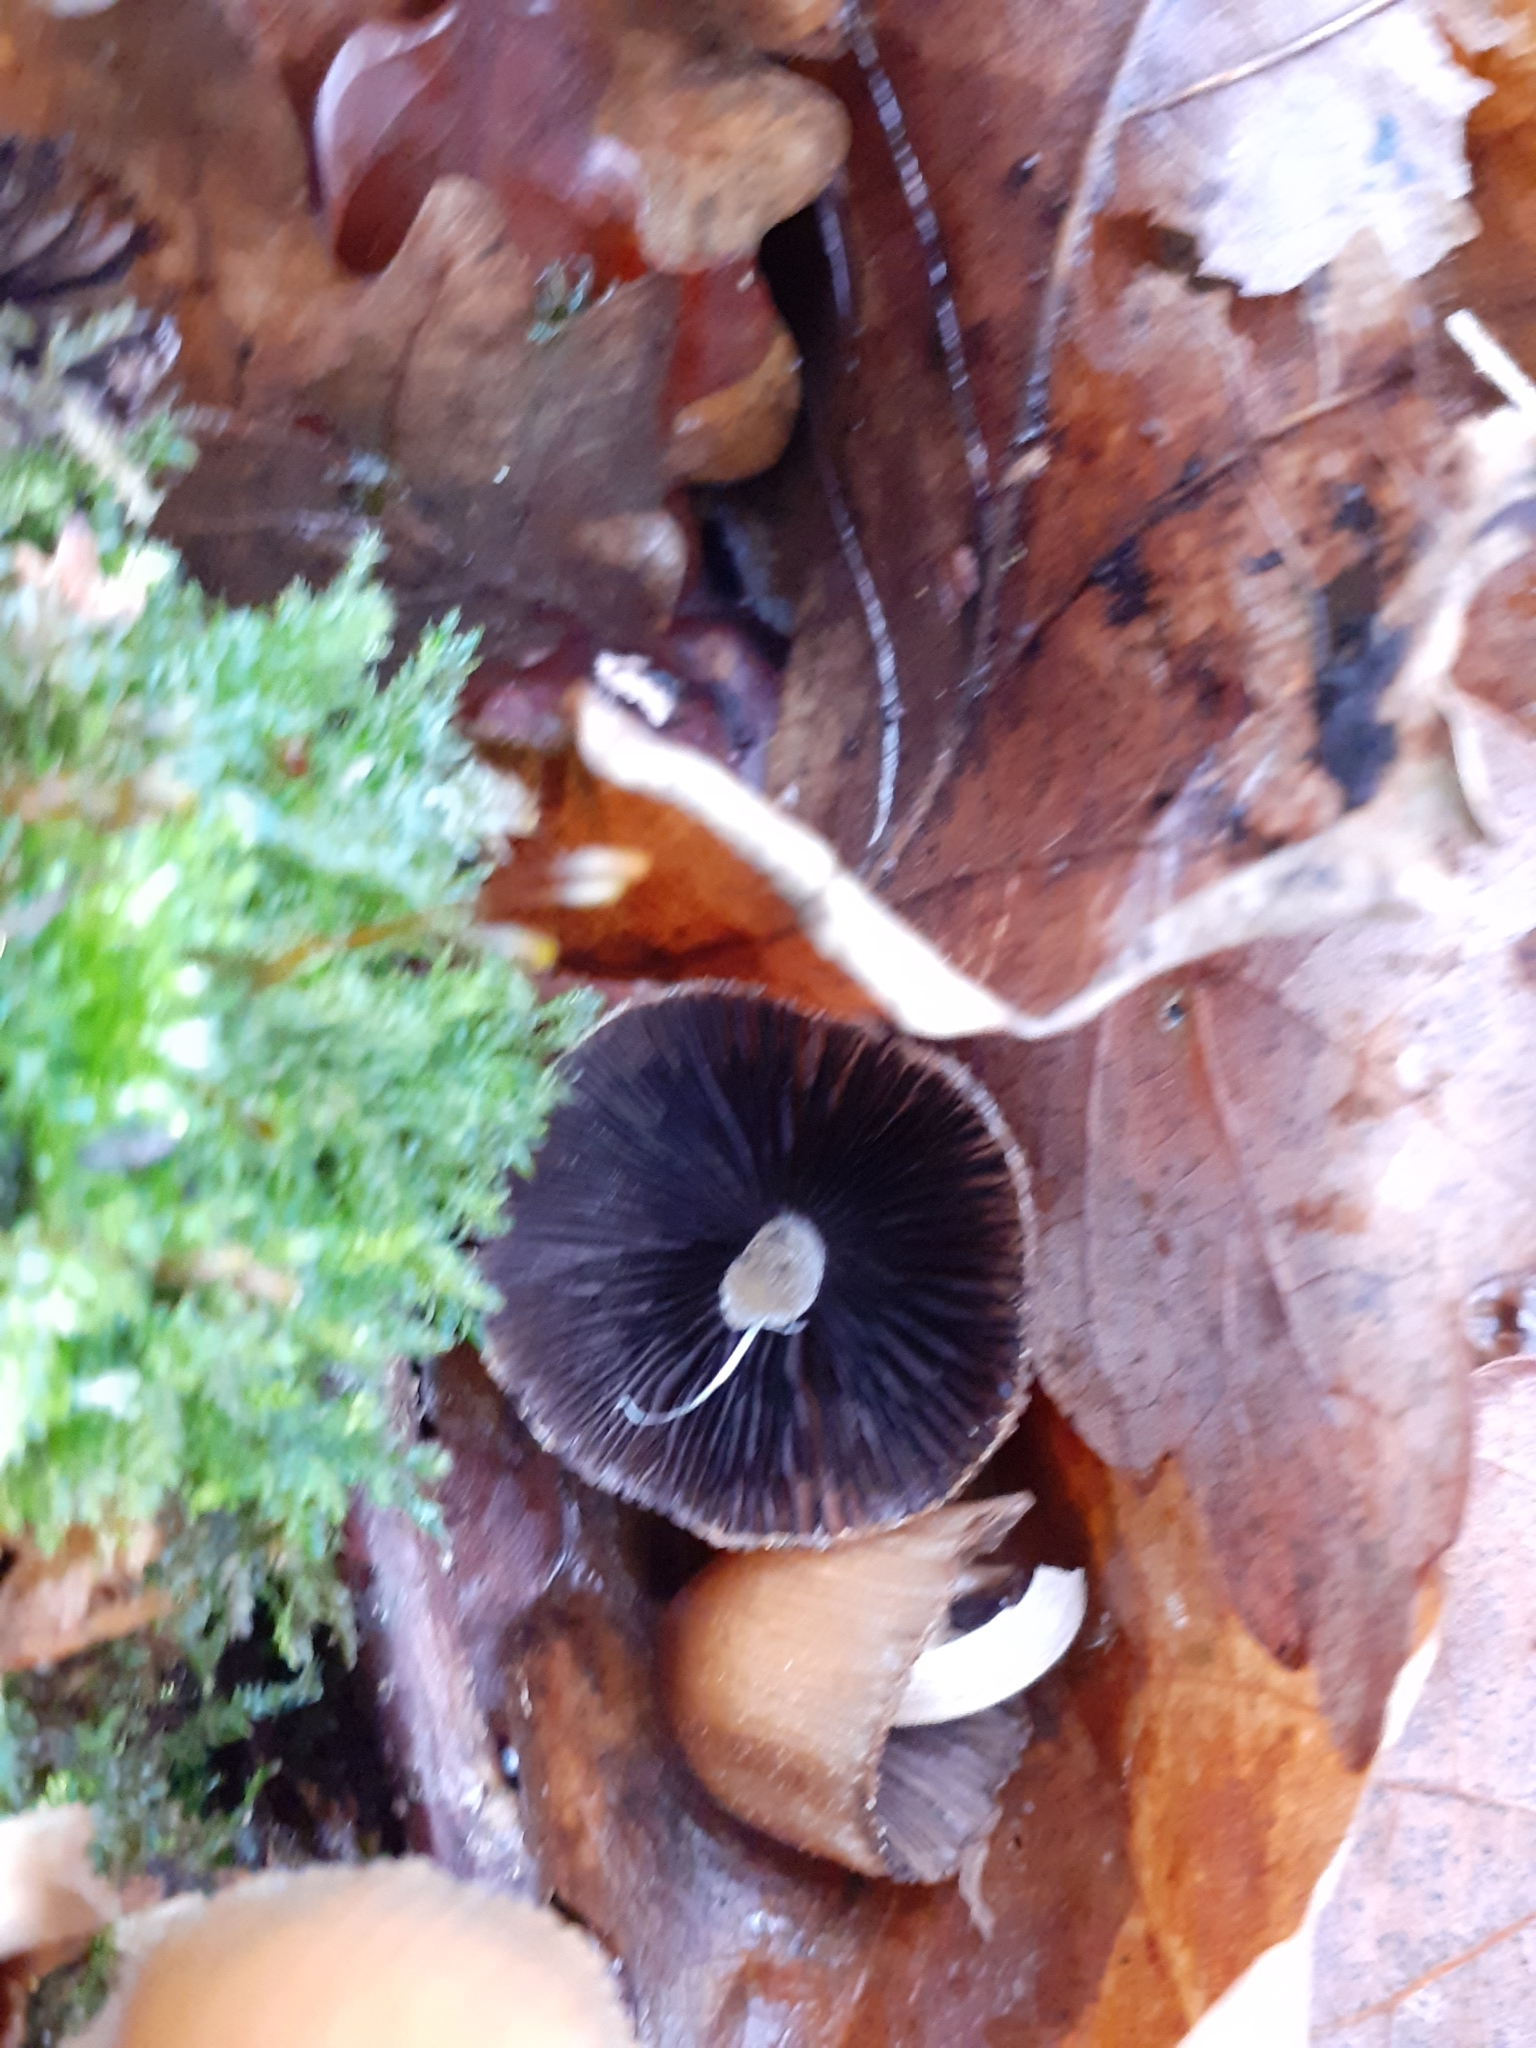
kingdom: Fungi
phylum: Basidiomycota
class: Agaricomycetes
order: Agaricales
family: Psathyrellaceae
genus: Coprinellus
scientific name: Coprinellus micaceus
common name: Glistening ink-cap
